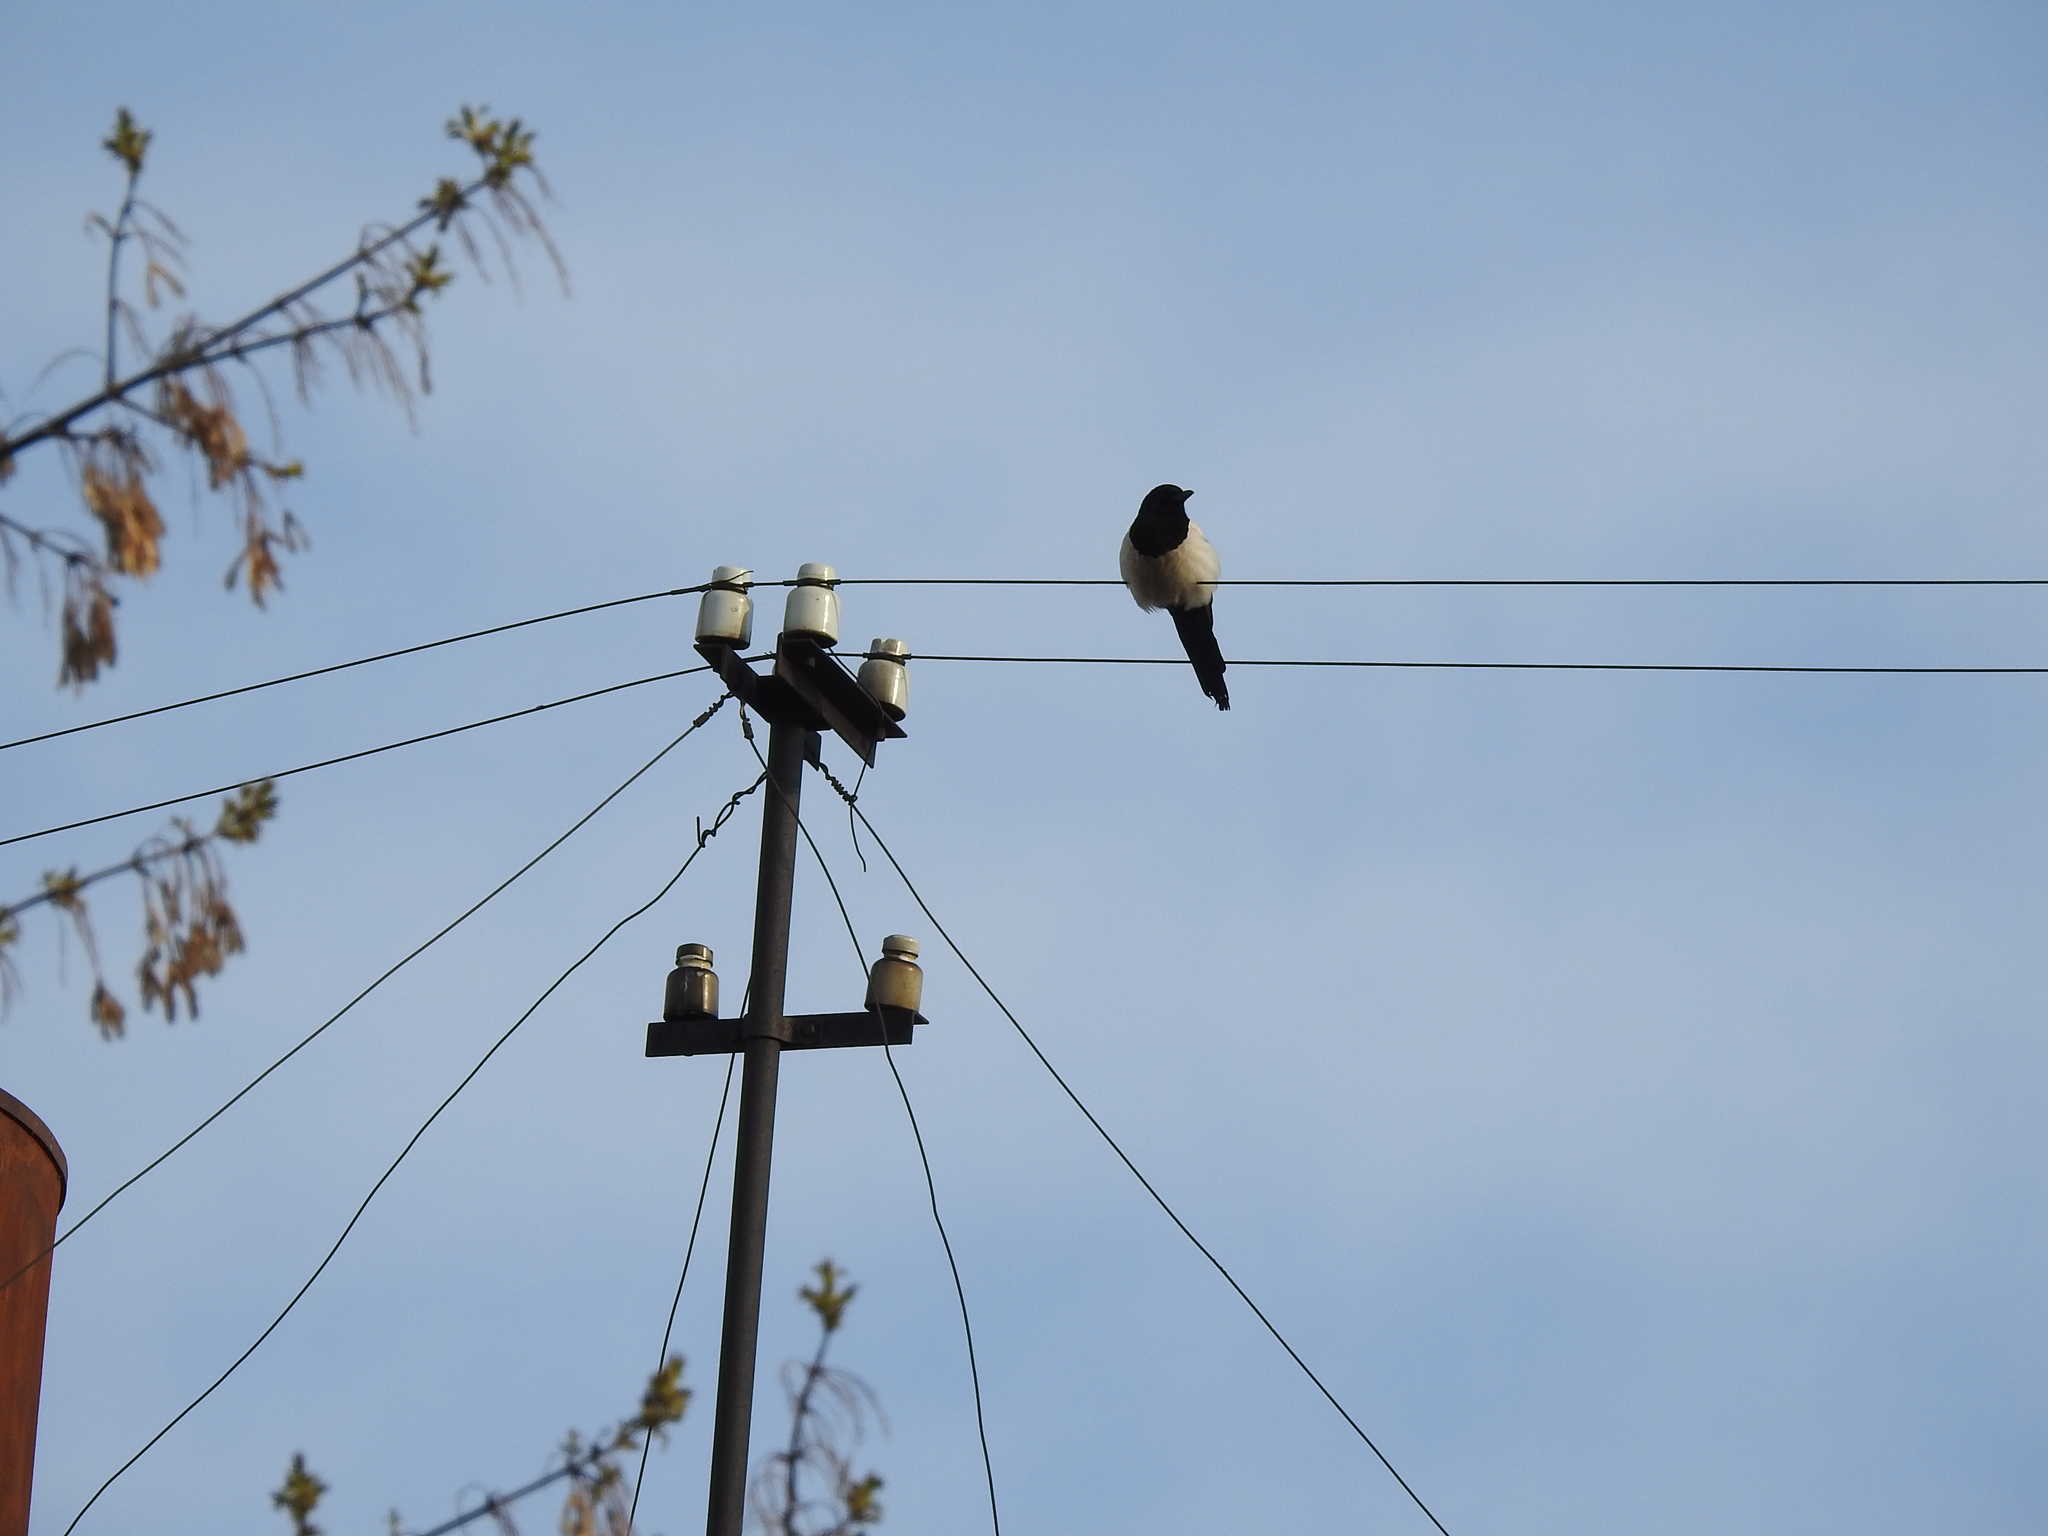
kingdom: Animalia
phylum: Chordata
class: Aves
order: Passeriformes
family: Corvidae
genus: Pica
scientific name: Pica pica
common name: Eurasian magpie
